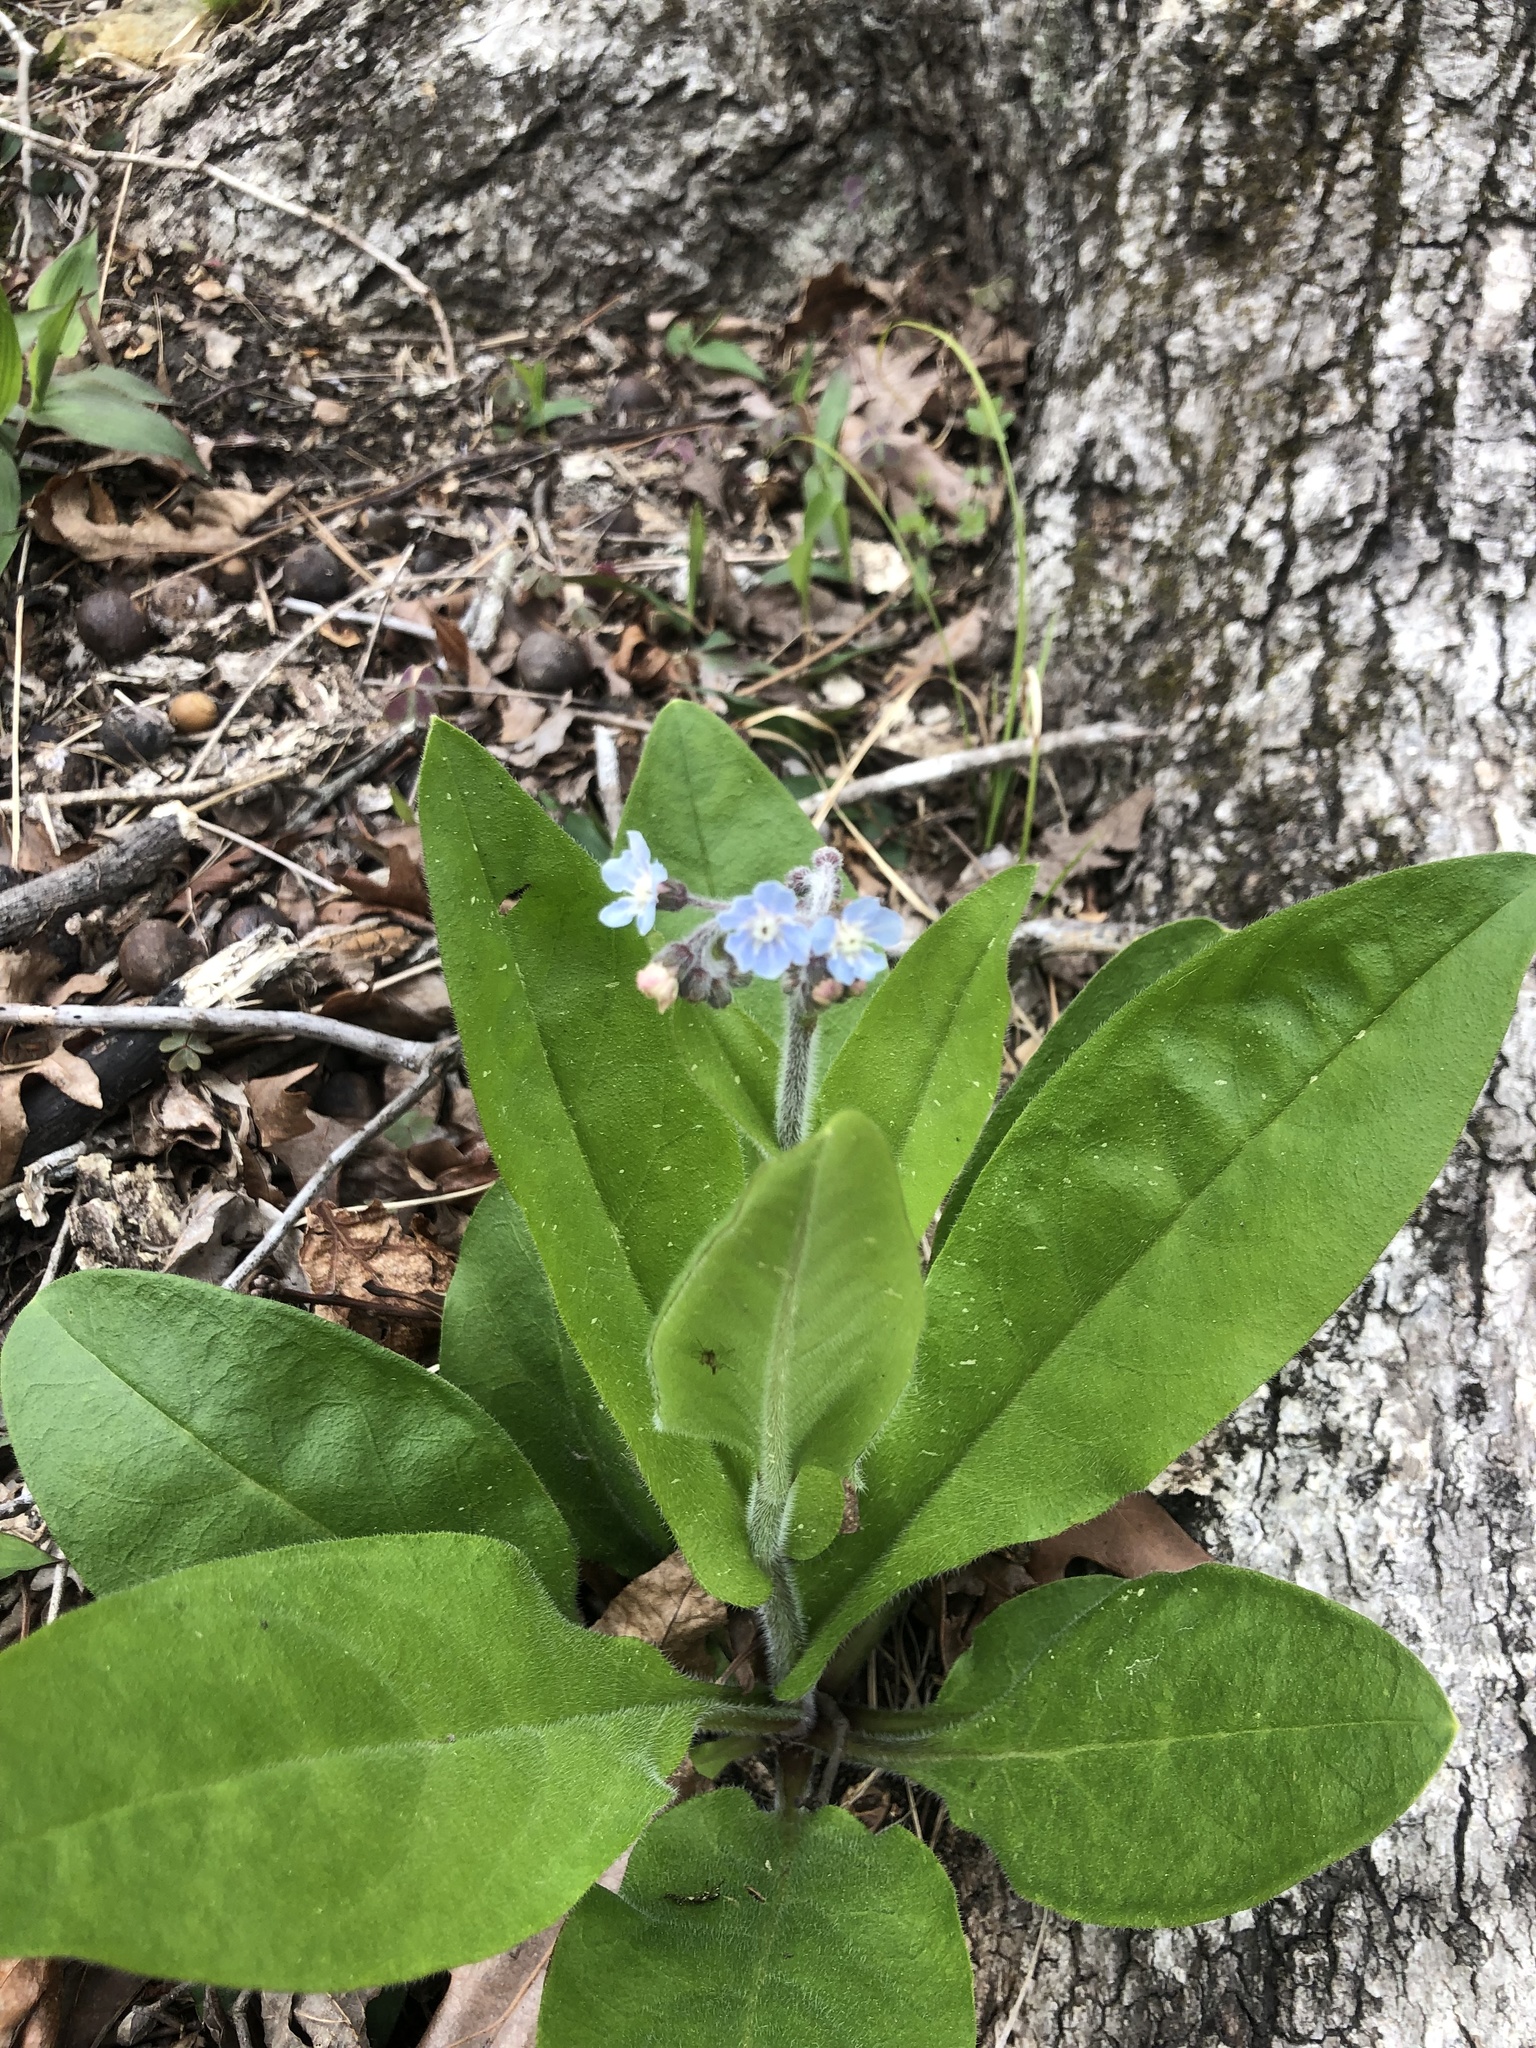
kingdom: Plantae
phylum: Tracheophyta
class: Magnoliopsida
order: Boraginales
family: Boraginaceae
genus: Andersonglossum
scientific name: Andersonglossum virginianum
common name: Wild comfrey
